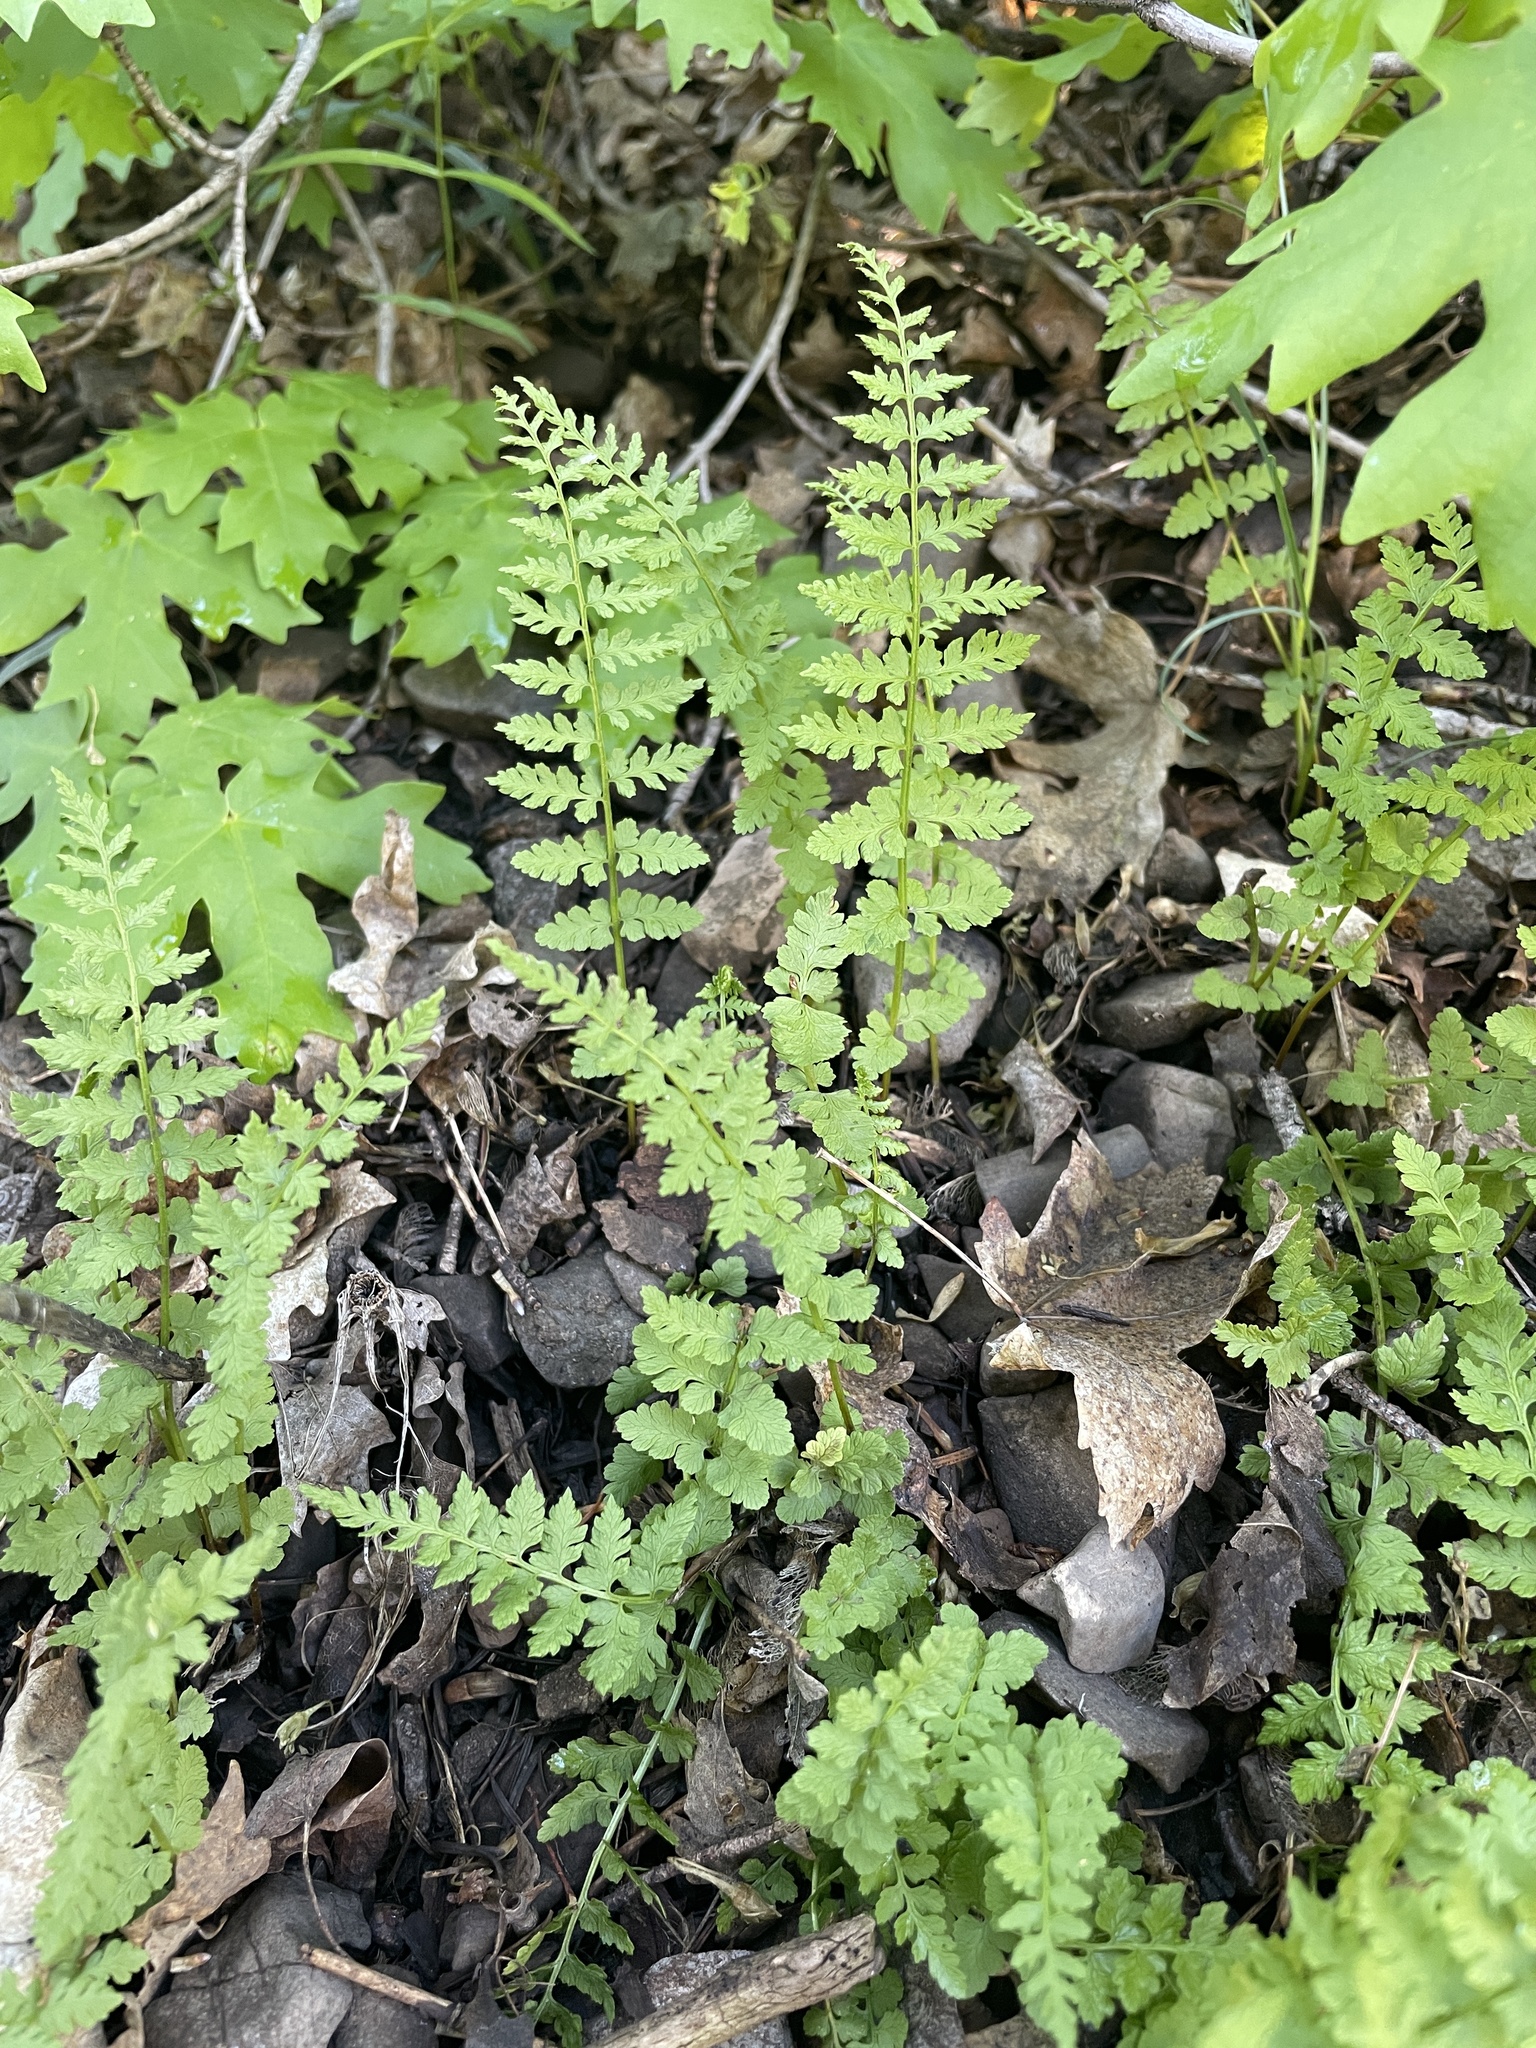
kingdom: Plantae
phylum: Tracheophyta
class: Polypodiopsida
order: Polypodiales
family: Cystopteridaceae
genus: Cystopteris
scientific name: Cystopteris fragilis
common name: Brittle bladder fern
